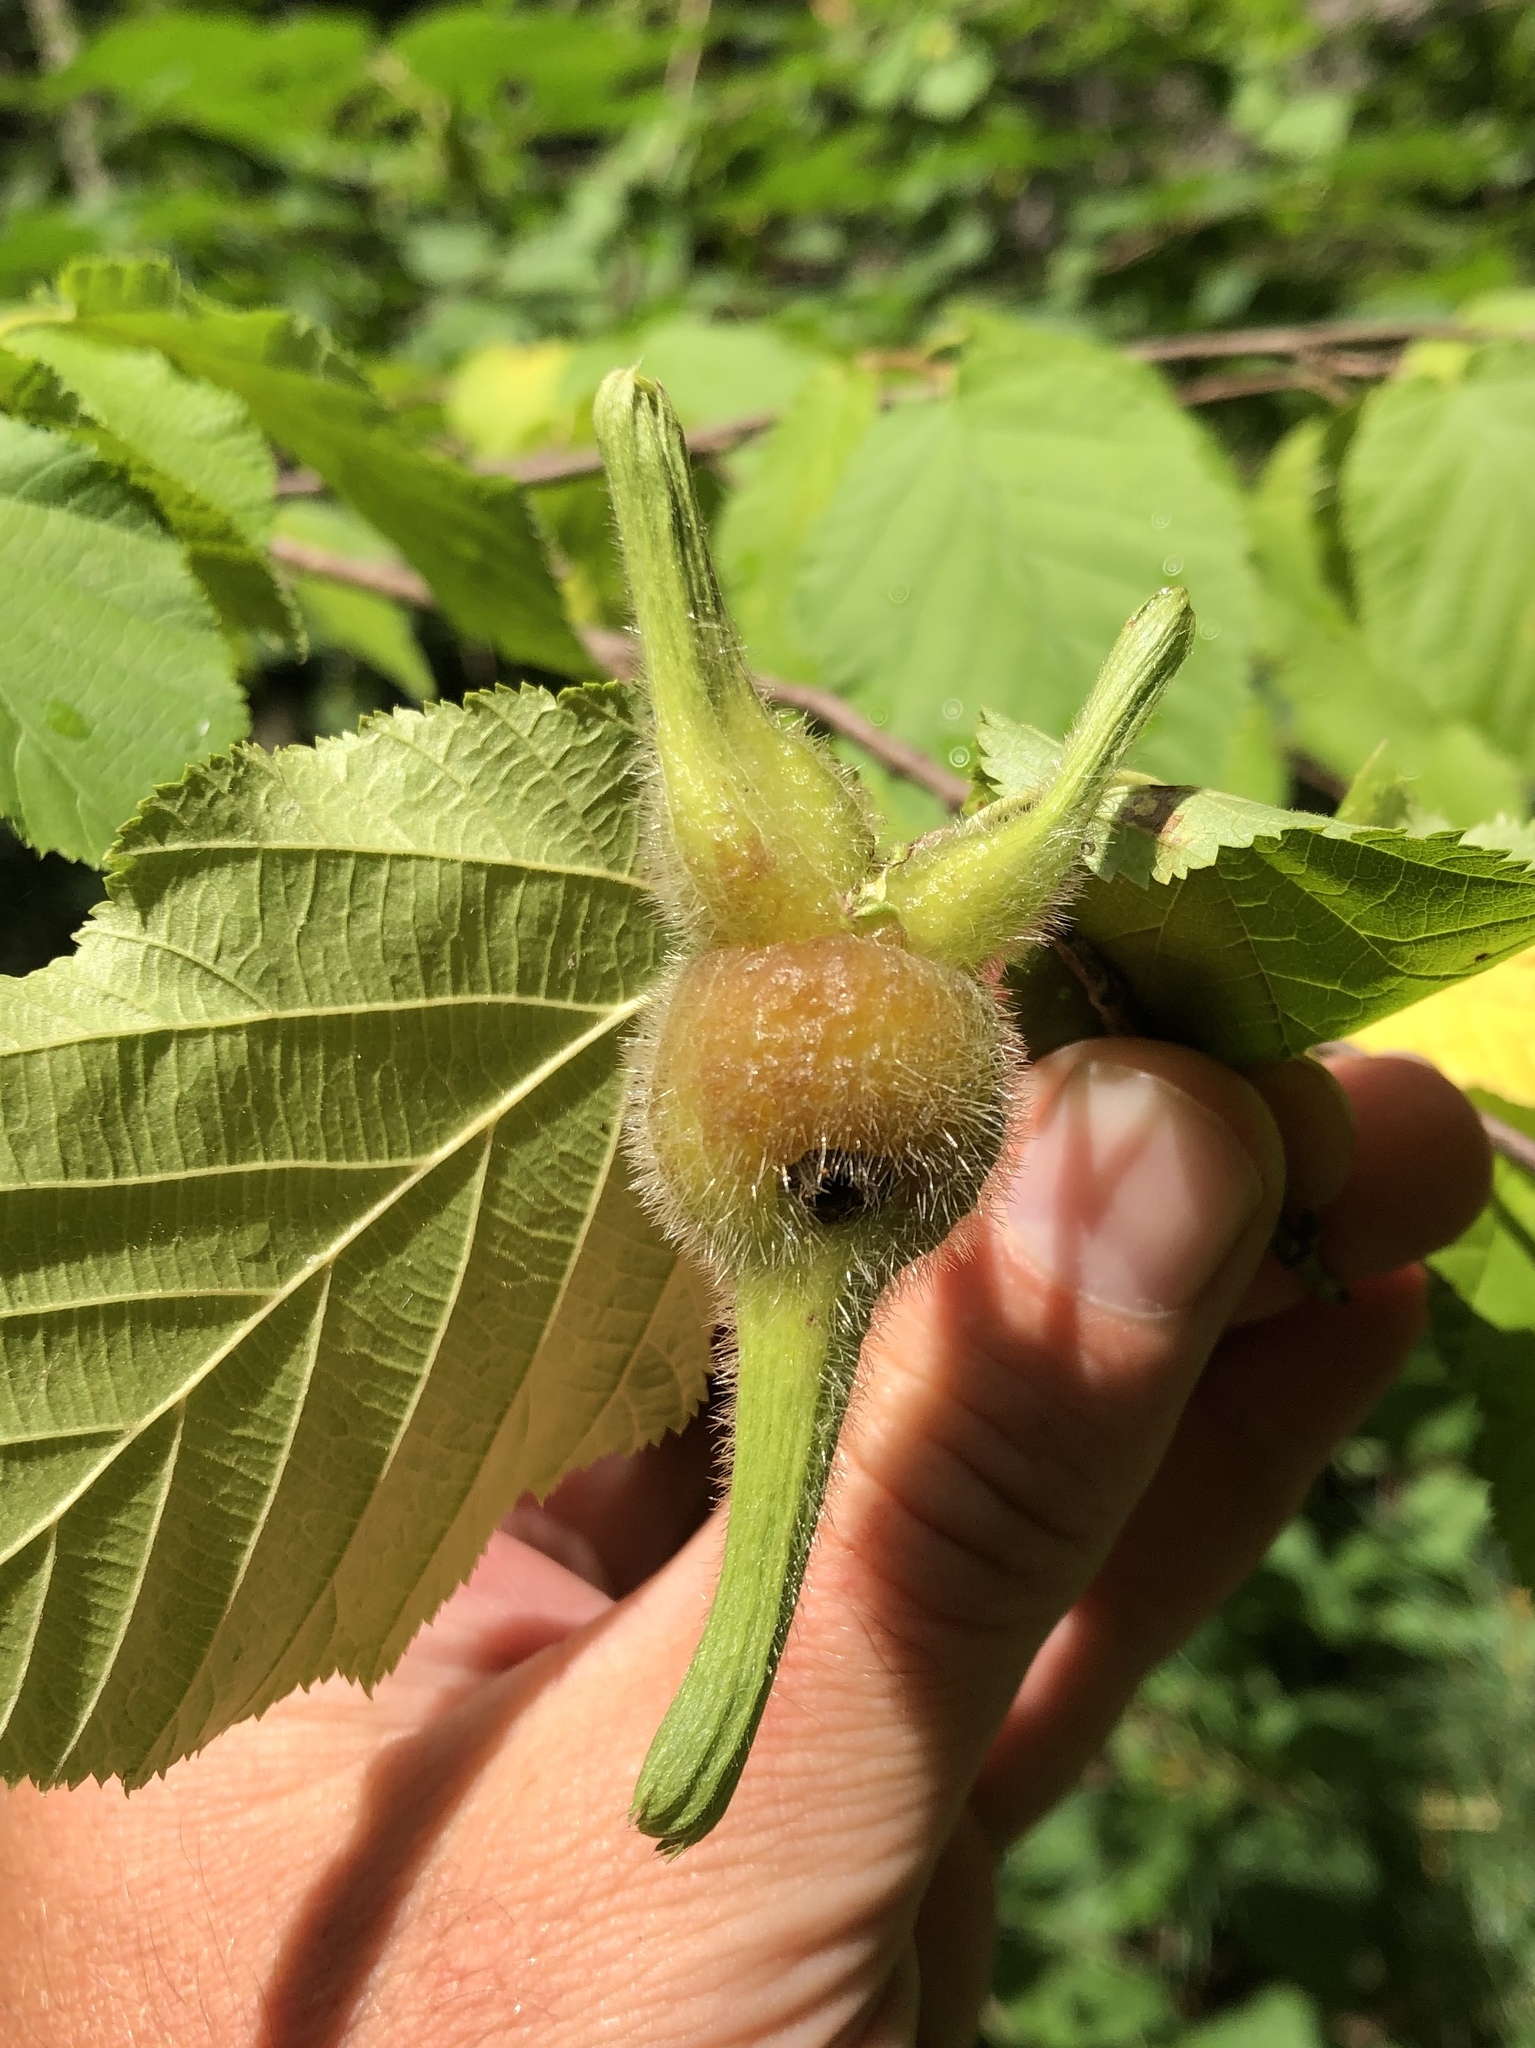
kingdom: Plantae
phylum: Tracheophyta
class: Magnoliopsida
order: Fagales
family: Betulaceae
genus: Corylus
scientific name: Corylus cornuta
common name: Beaked hazel
